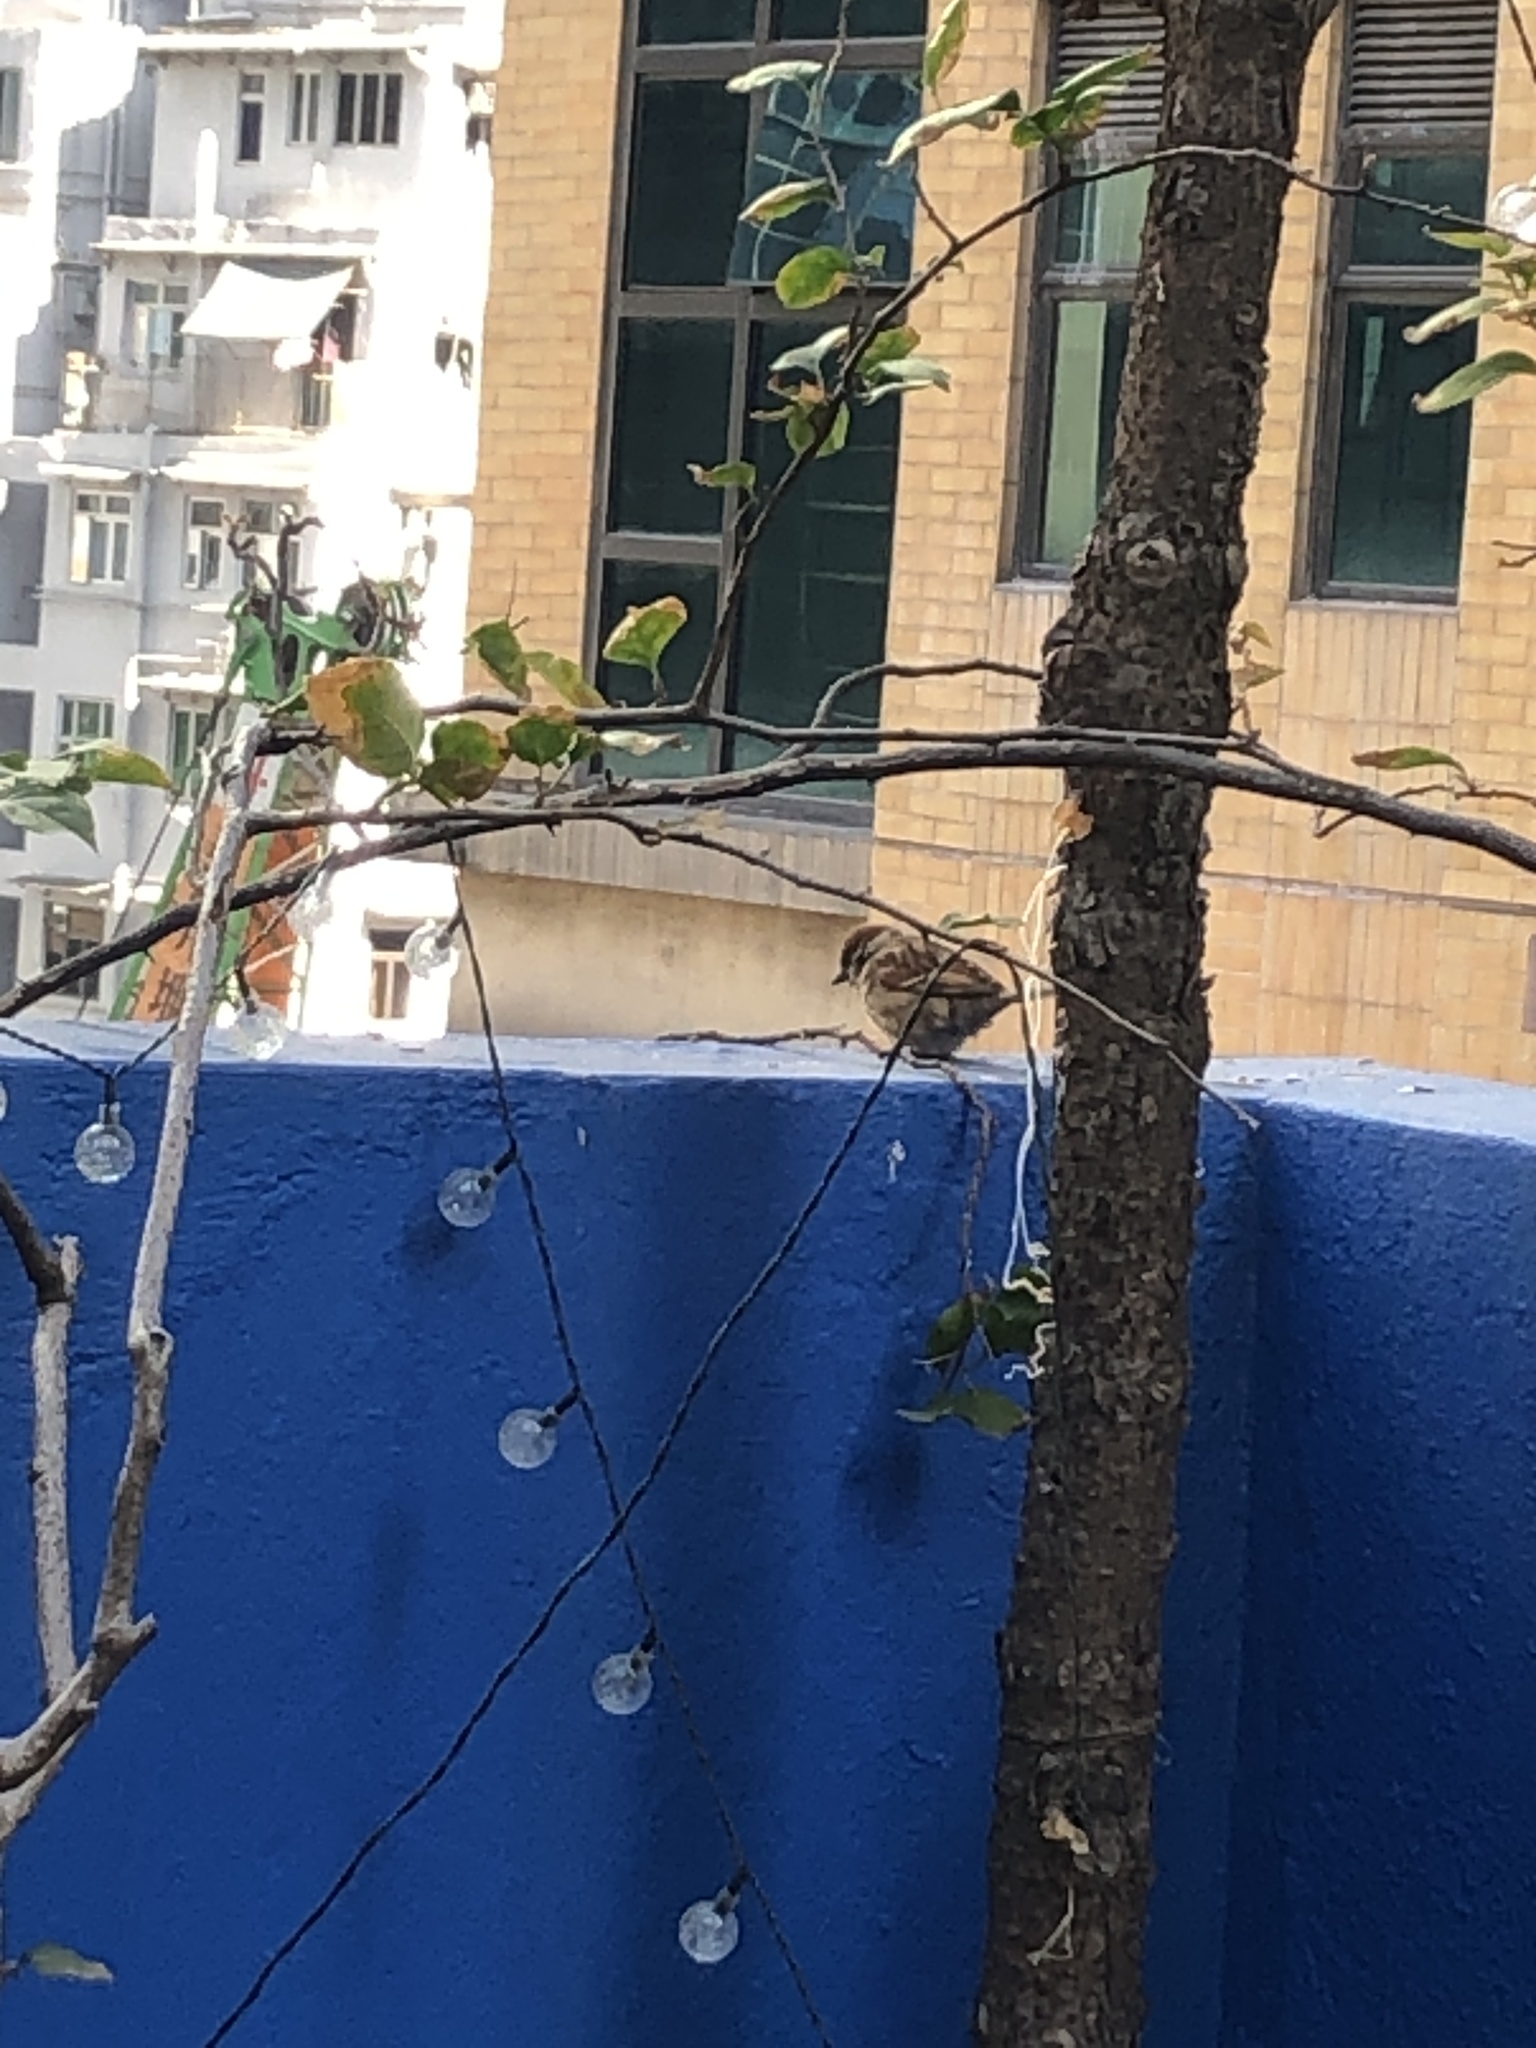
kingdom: Animalia
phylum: Chordata
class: Aves
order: Passeriformes
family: Passeridae
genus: Passer
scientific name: Passer montanus
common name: Eurasian tree sparrow
